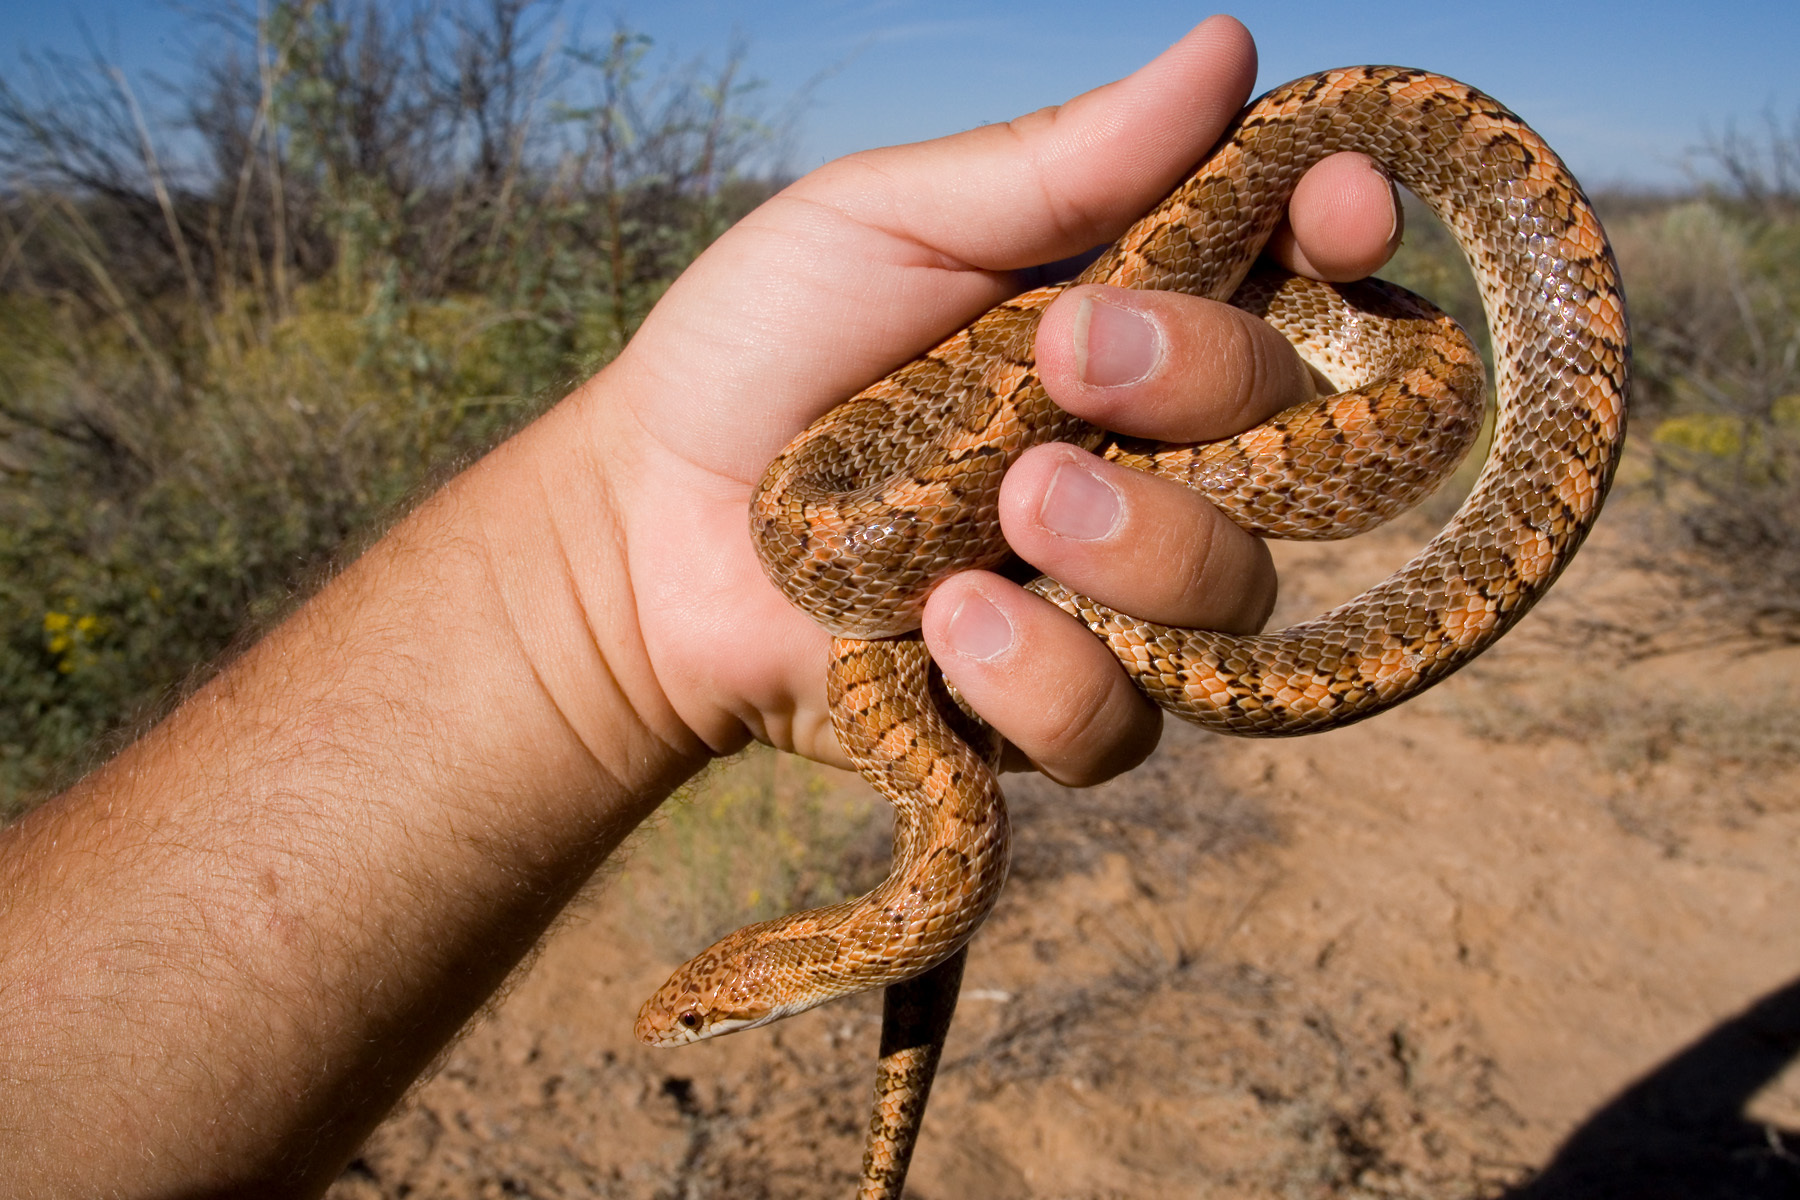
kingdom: Animalia
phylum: Chordata
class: Squamata
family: Colubridae
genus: Arizona
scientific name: Arizona elegans
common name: Glossy snake
